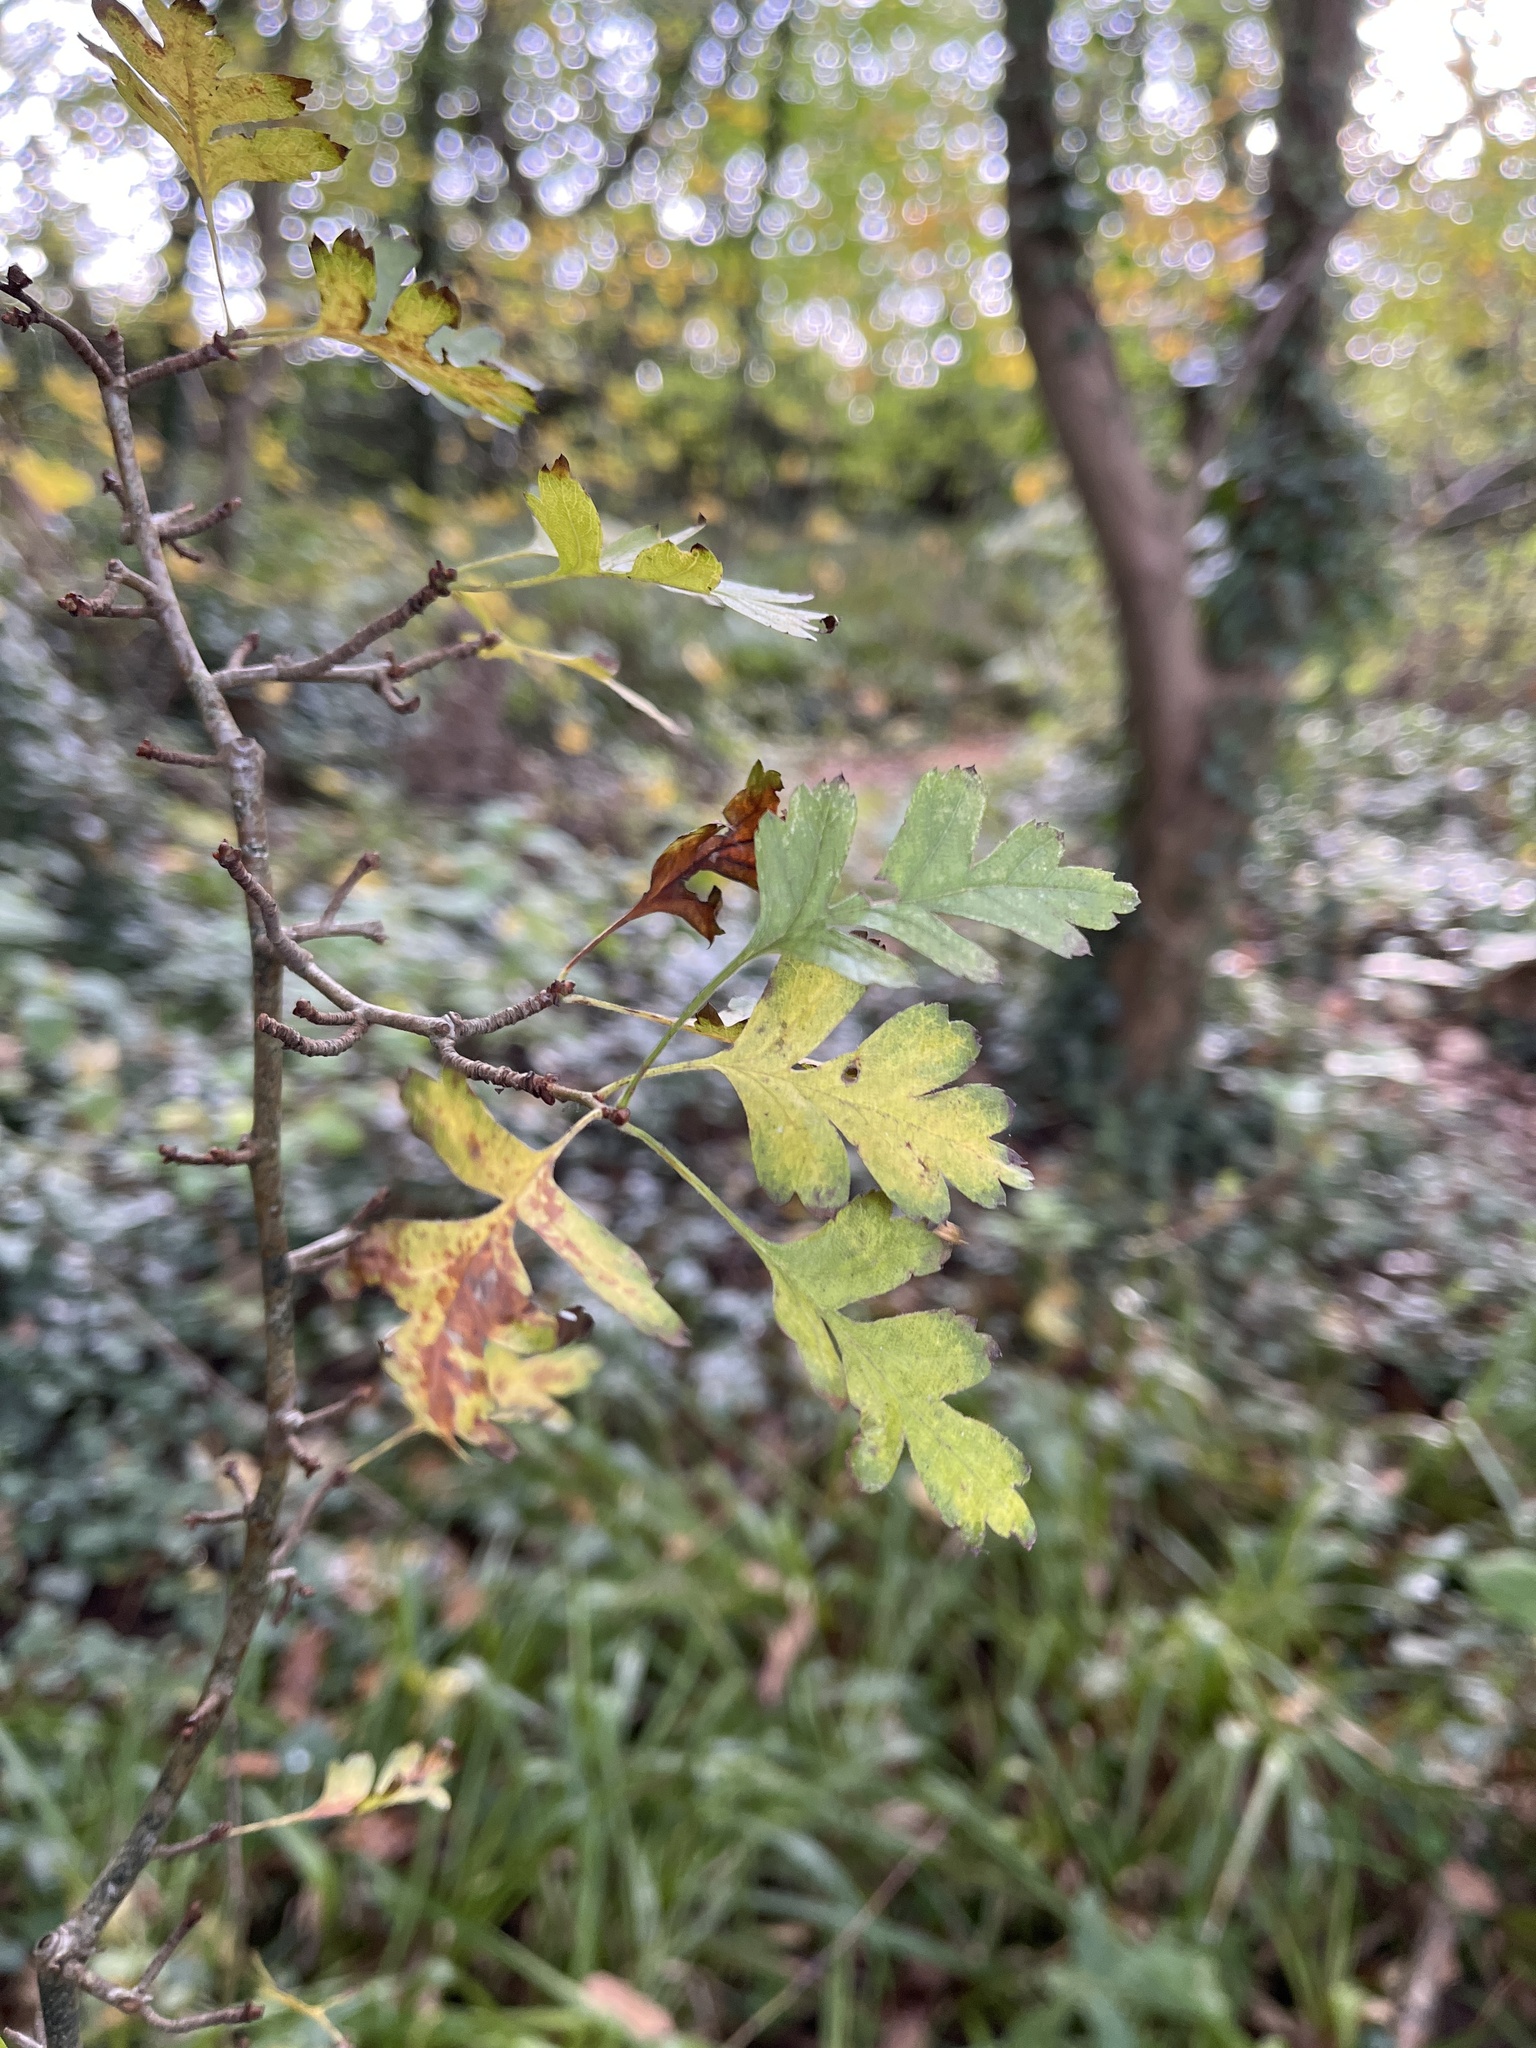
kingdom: Plantae
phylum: Tracheophyta
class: Magnoliopsida
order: Rosales
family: Rosaceae
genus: Crataegus
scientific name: Crataegus monogyna
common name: Hawthorn
